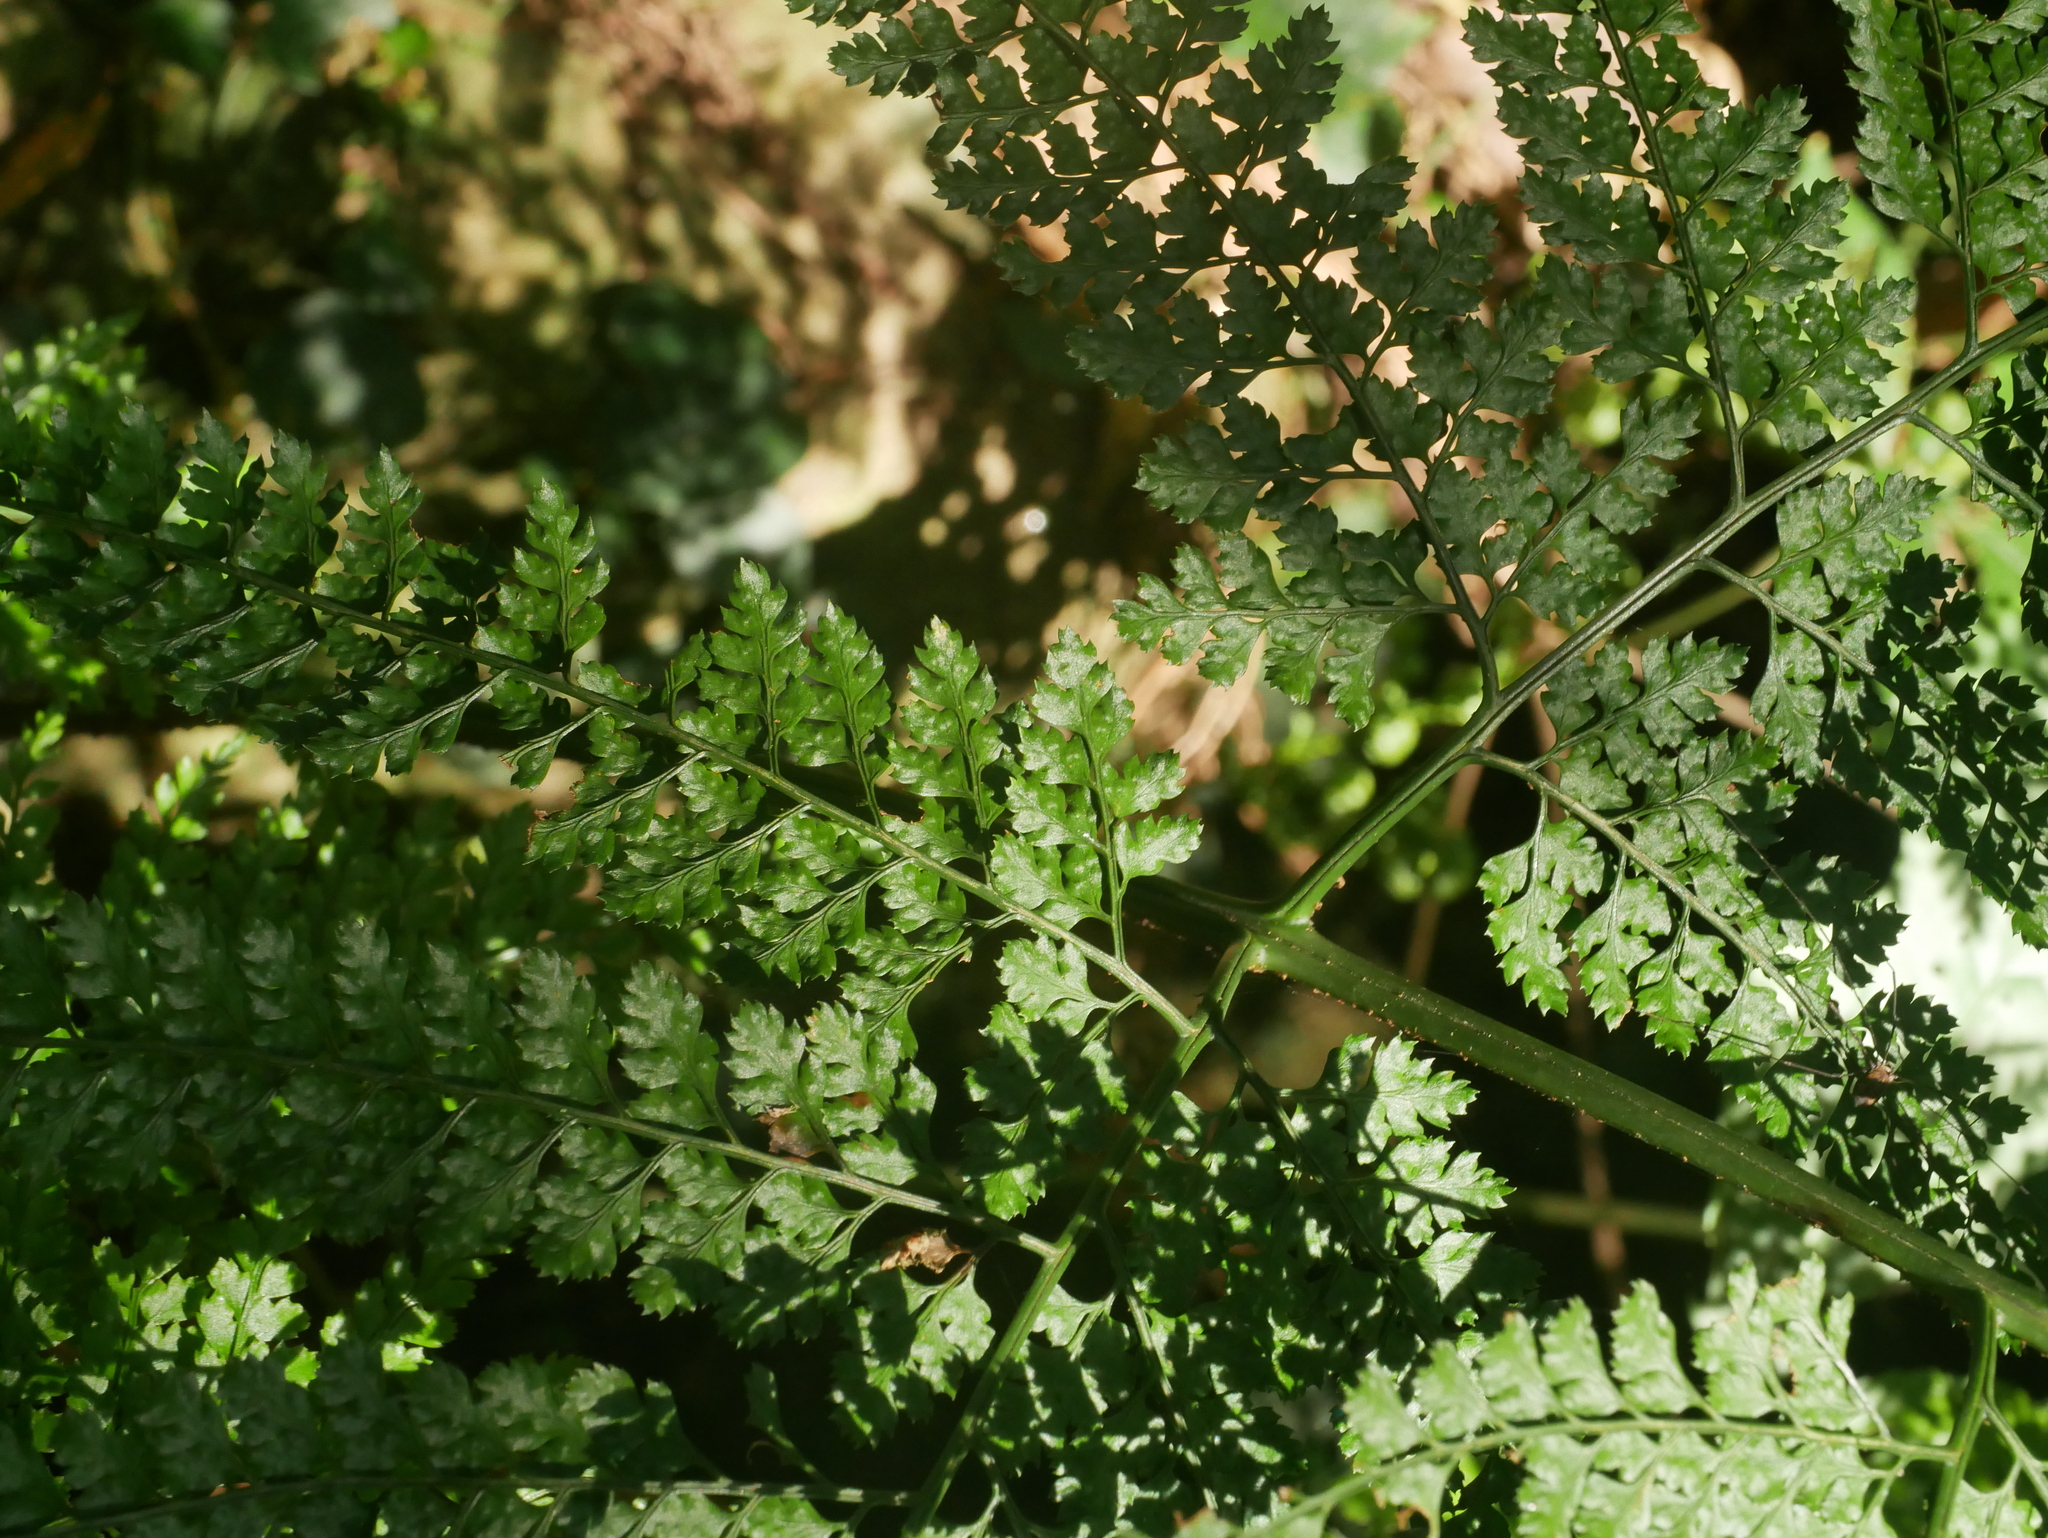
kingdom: Plantae
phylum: Tracheophyta
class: Polypodiopsida
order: Polypodiales
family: Dryopteridaceae
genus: Arachniodes
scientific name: Arachniodes festina
